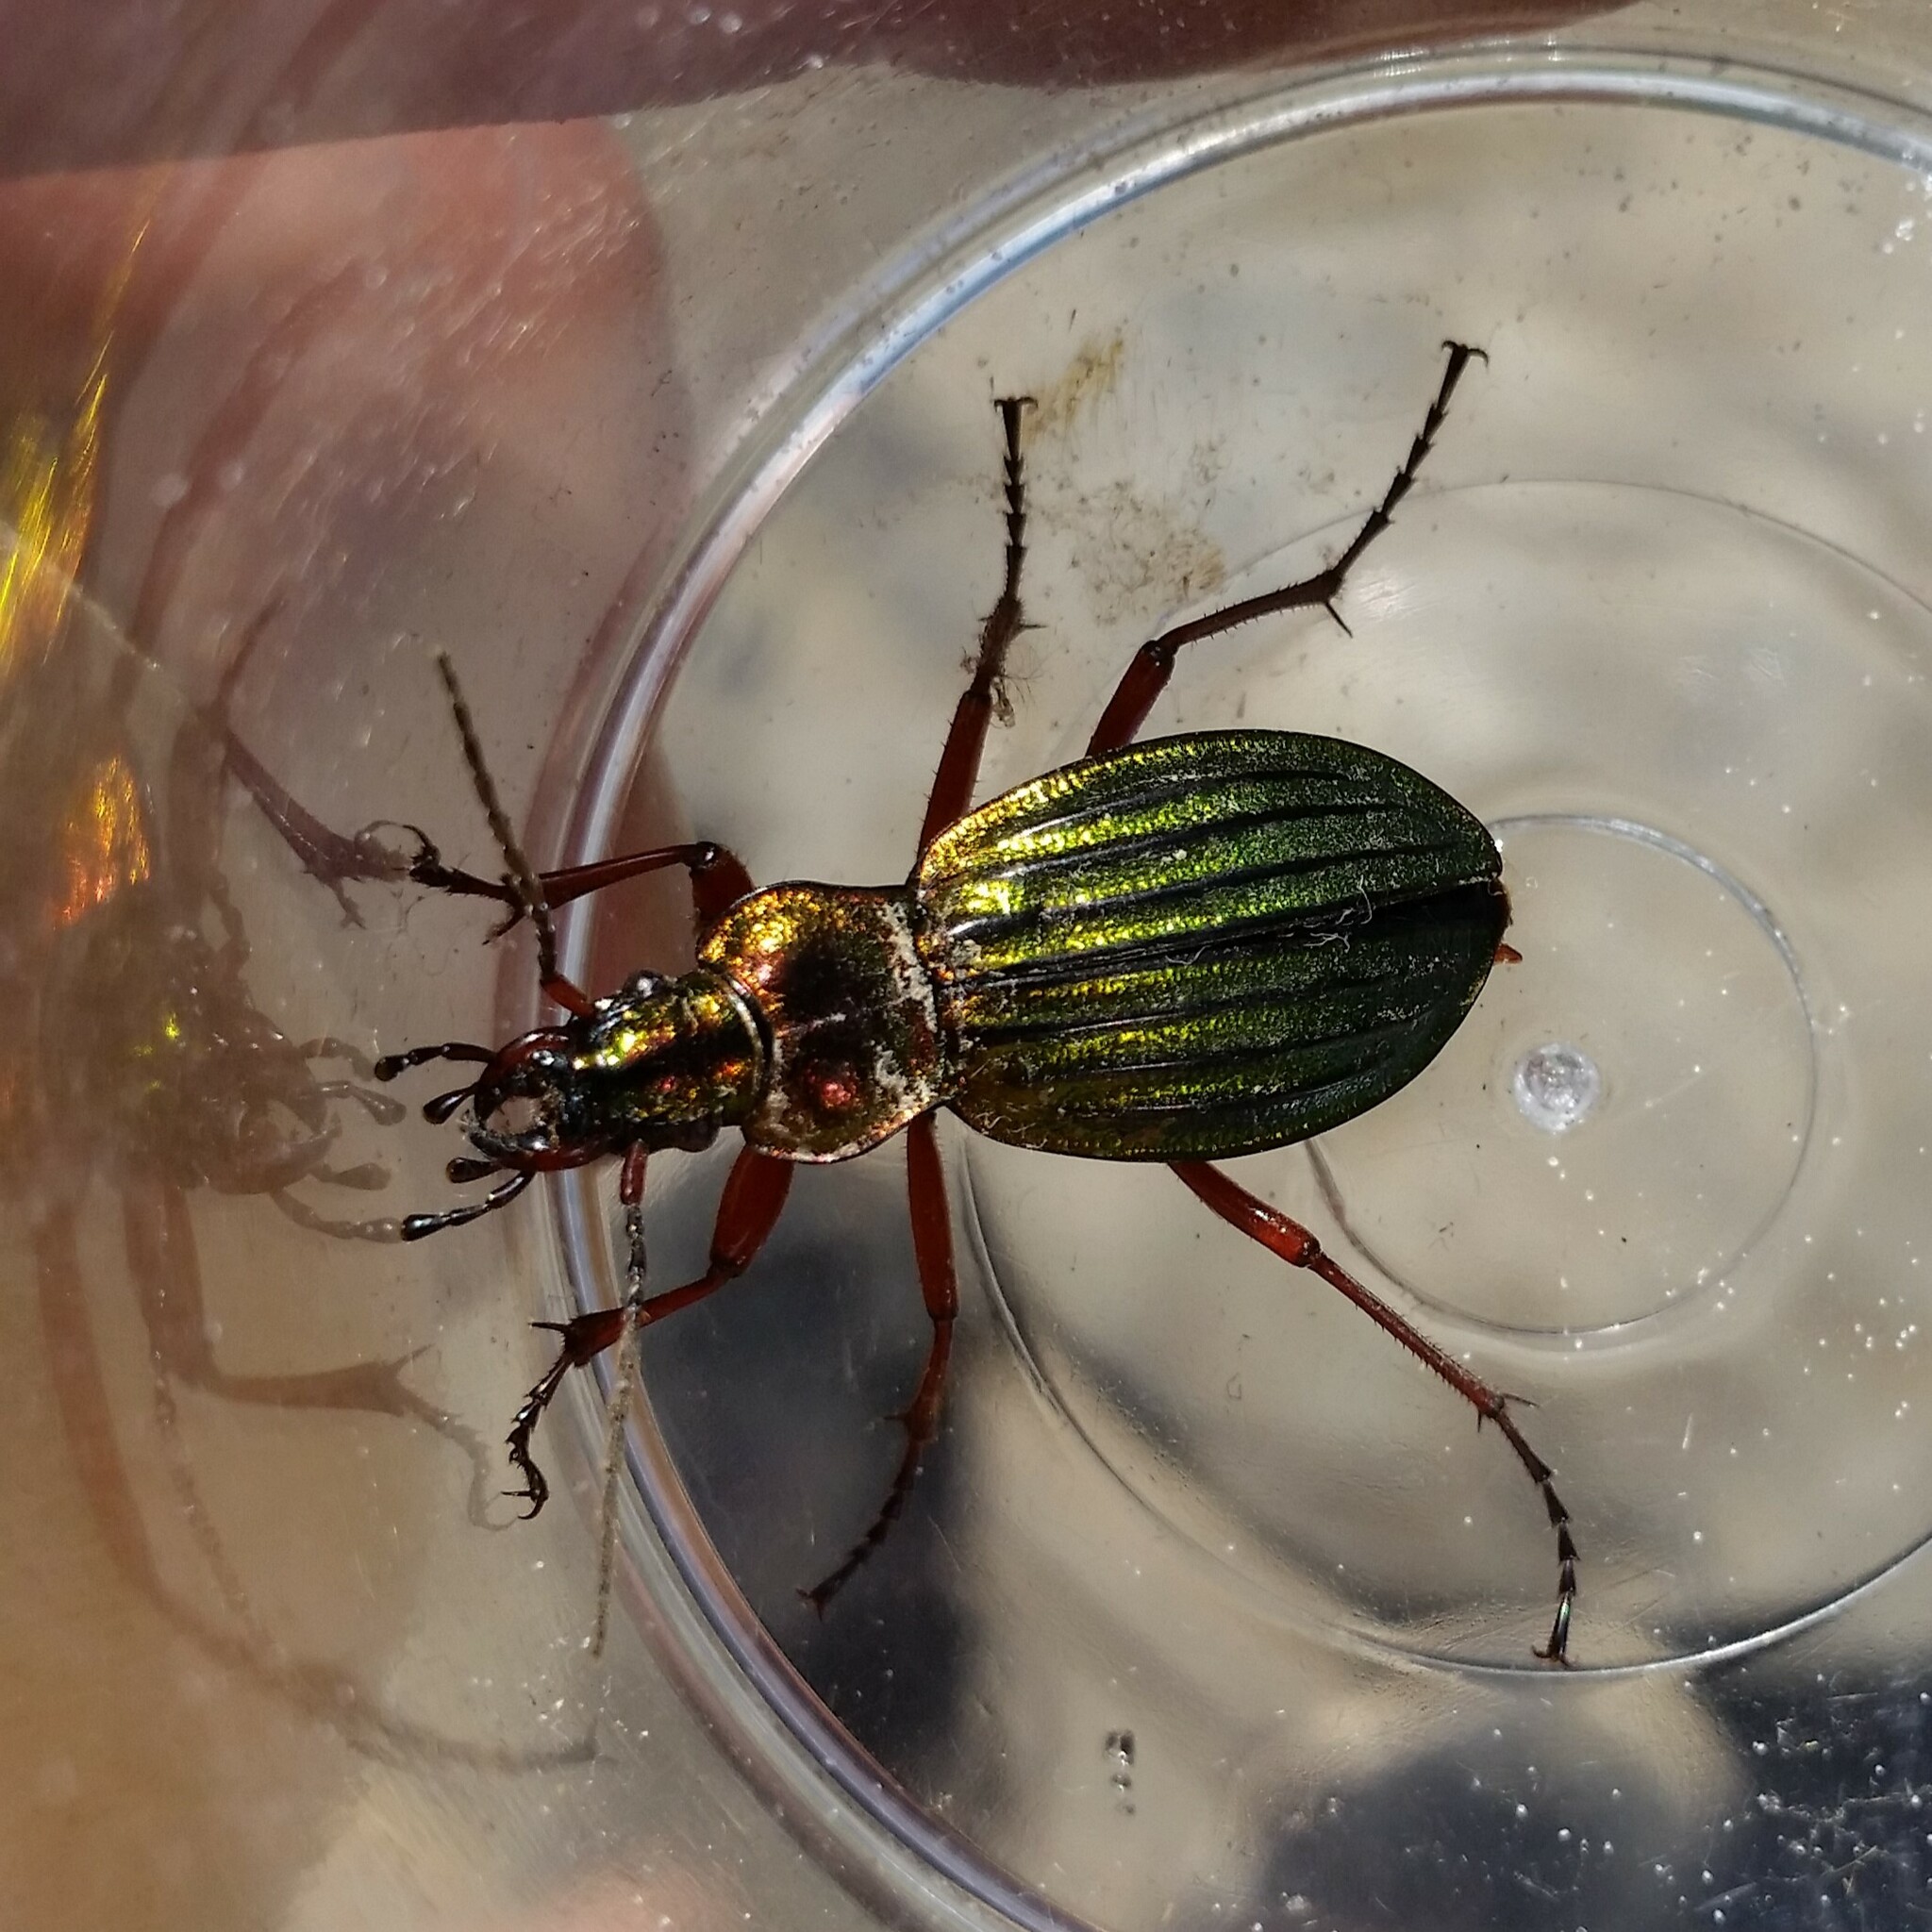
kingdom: Animalia
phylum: Arthropoda
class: Insecta
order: Coleoptera
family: Carabidae
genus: Carabus
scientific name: Carabus auronitens
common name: Carabus auronitens
